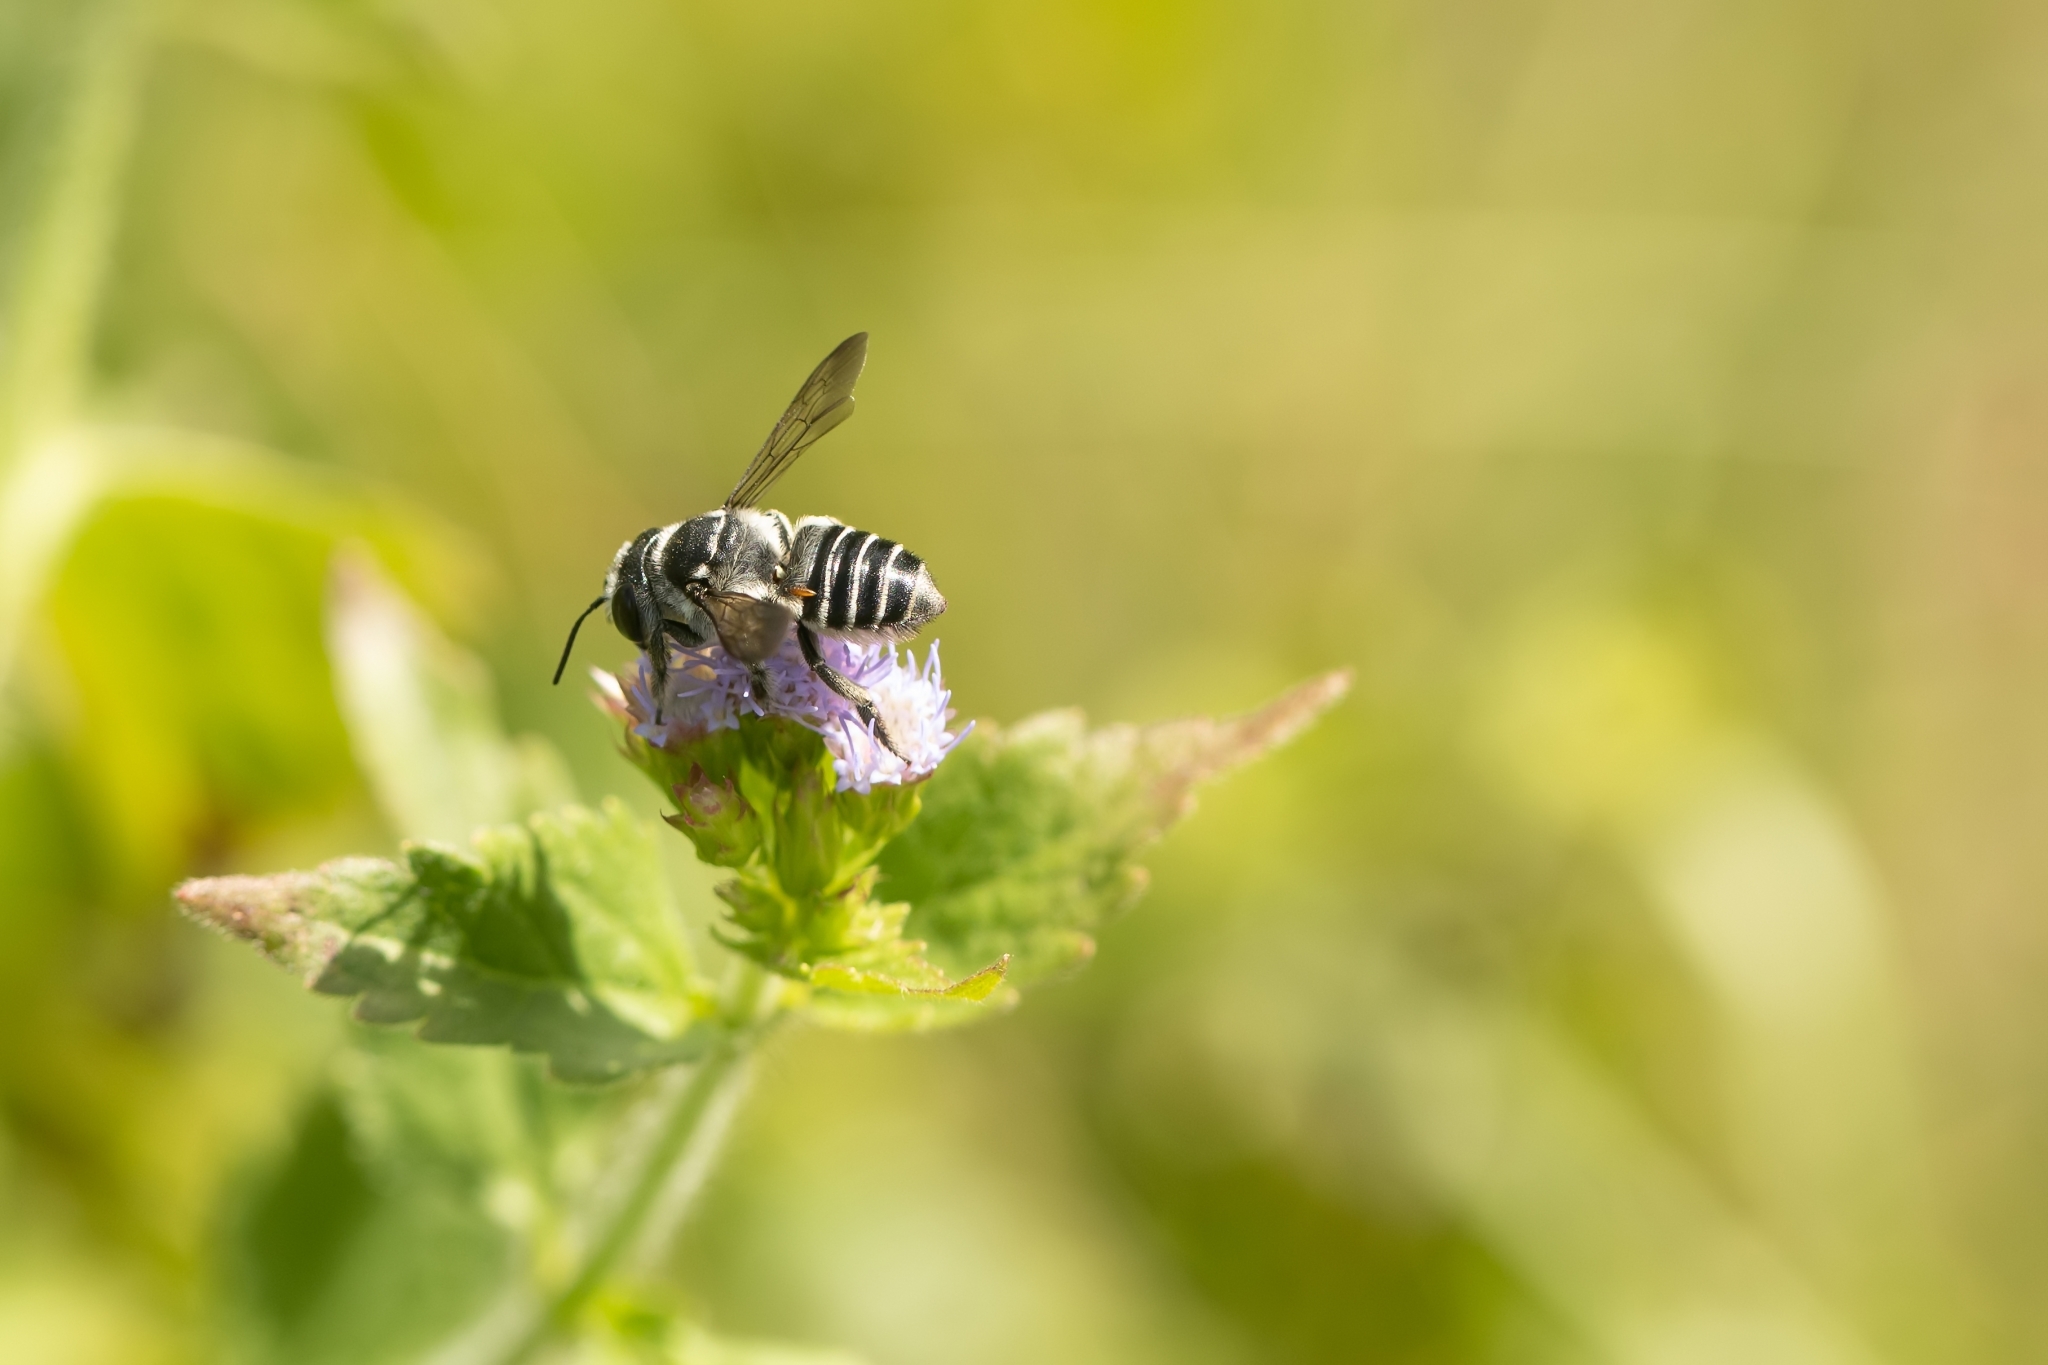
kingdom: Animalia
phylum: Arthropoda
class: Insecta
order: Hymenoptera
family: Megachilidae
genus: Megachile
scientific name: Megachile pruina
